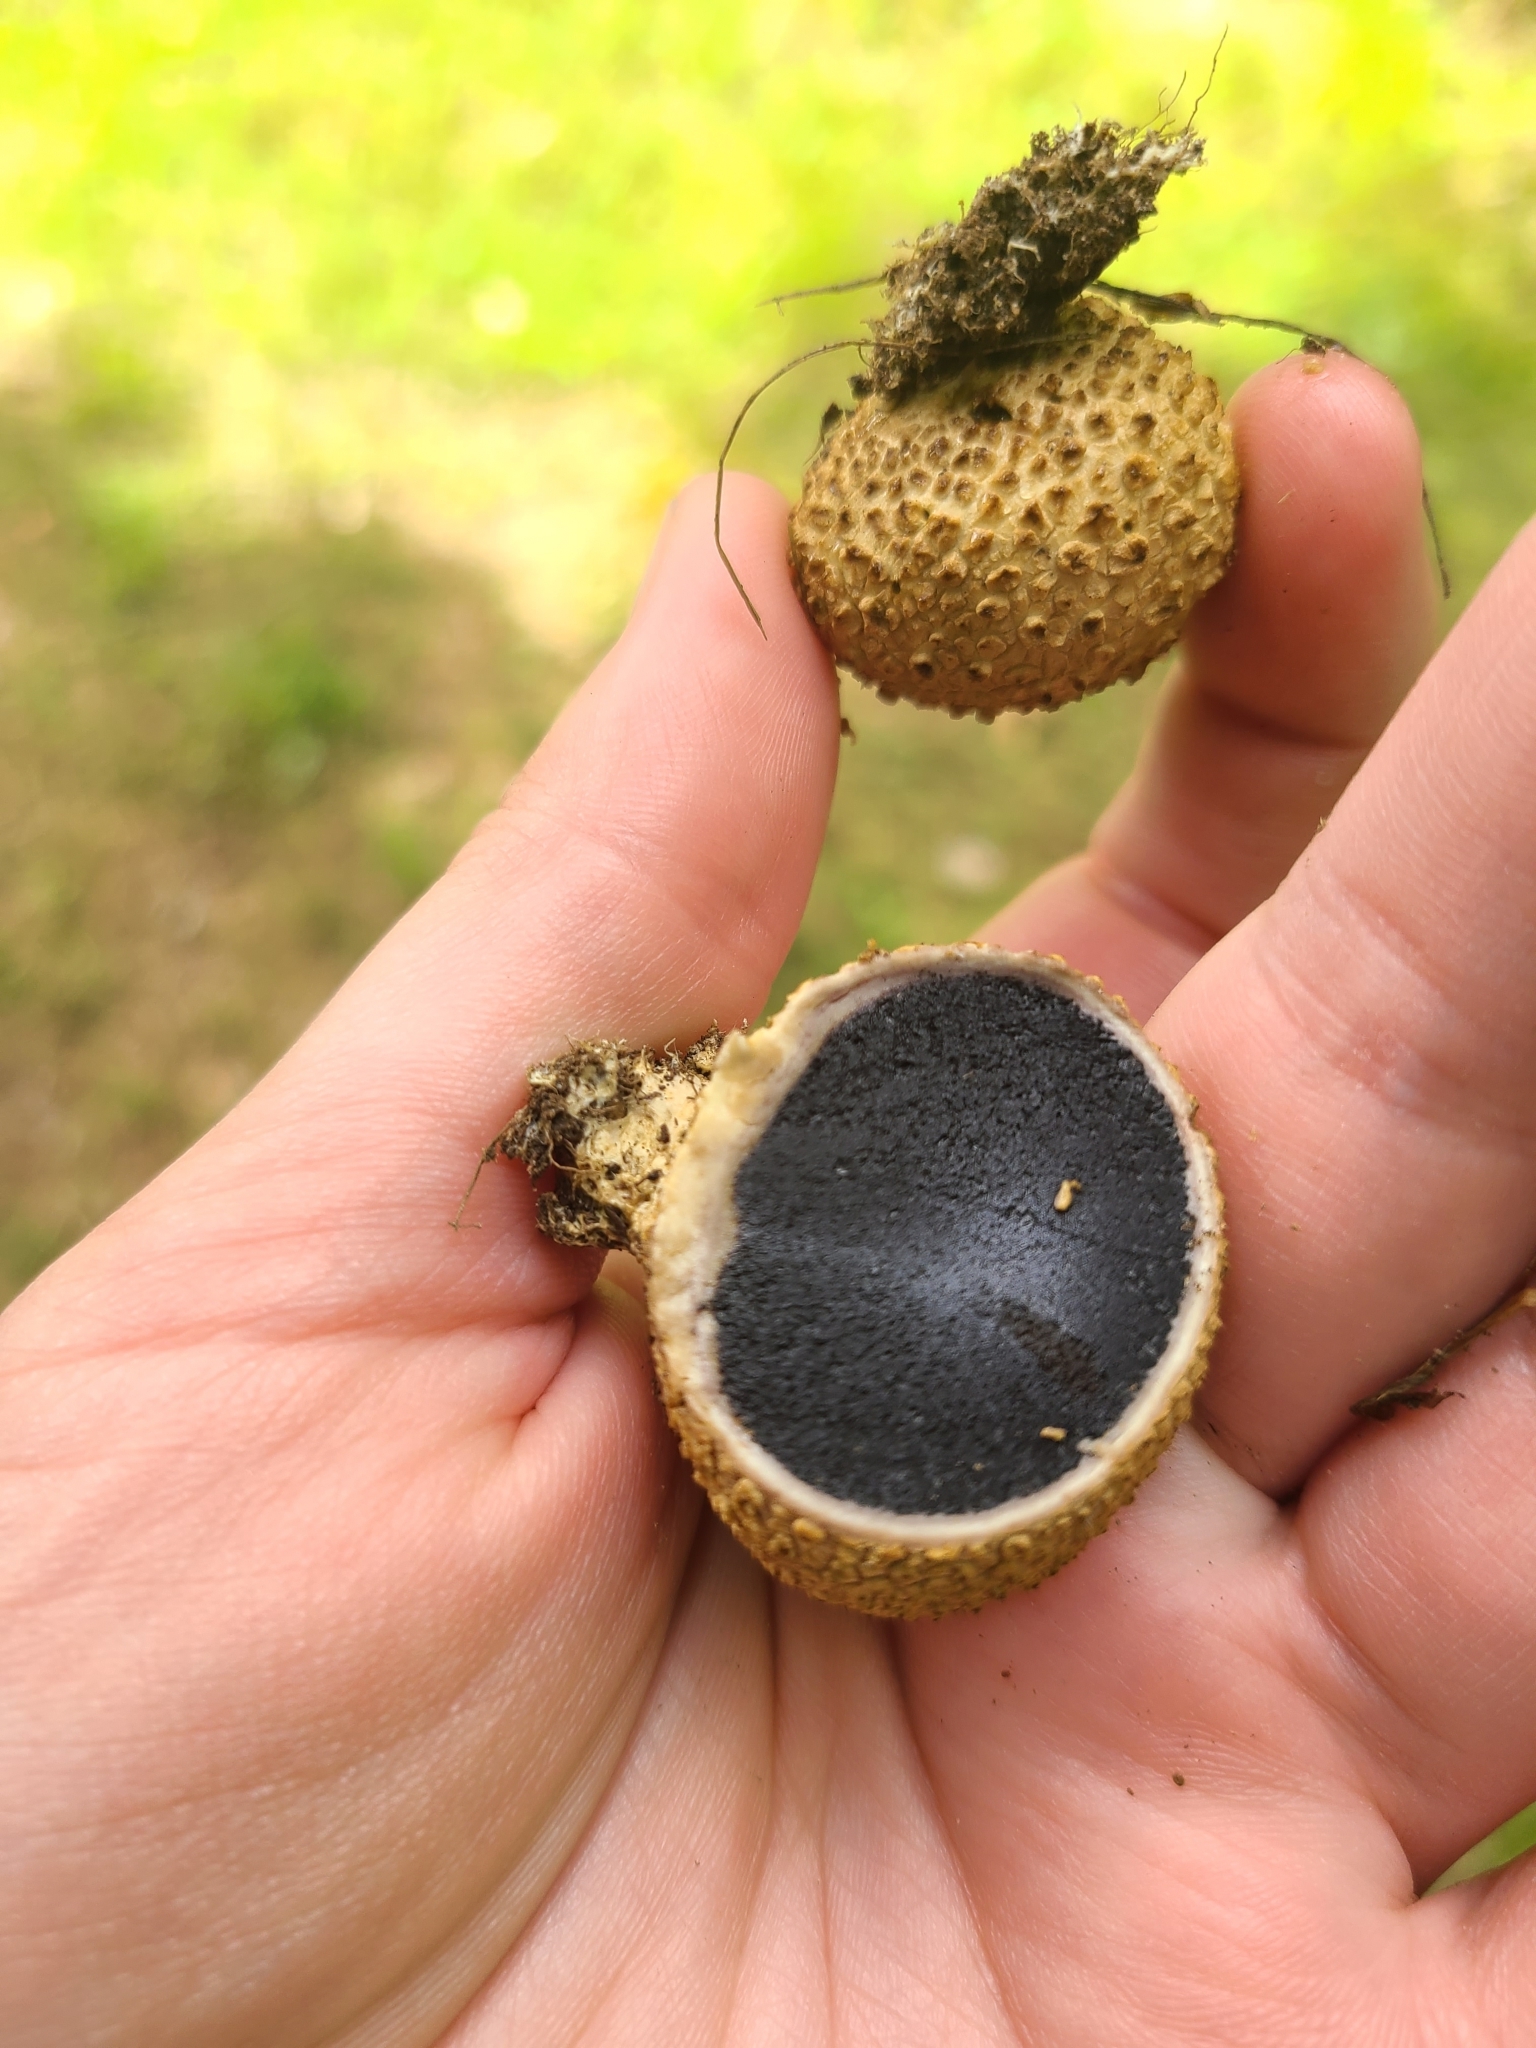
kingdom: Fungi
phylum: Basidiomycota
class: Agaricomycetes
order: Boletales
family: Sclerodermataceae
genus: Scleroderma
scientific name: Scleroderma citrinum
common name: Common earthball
